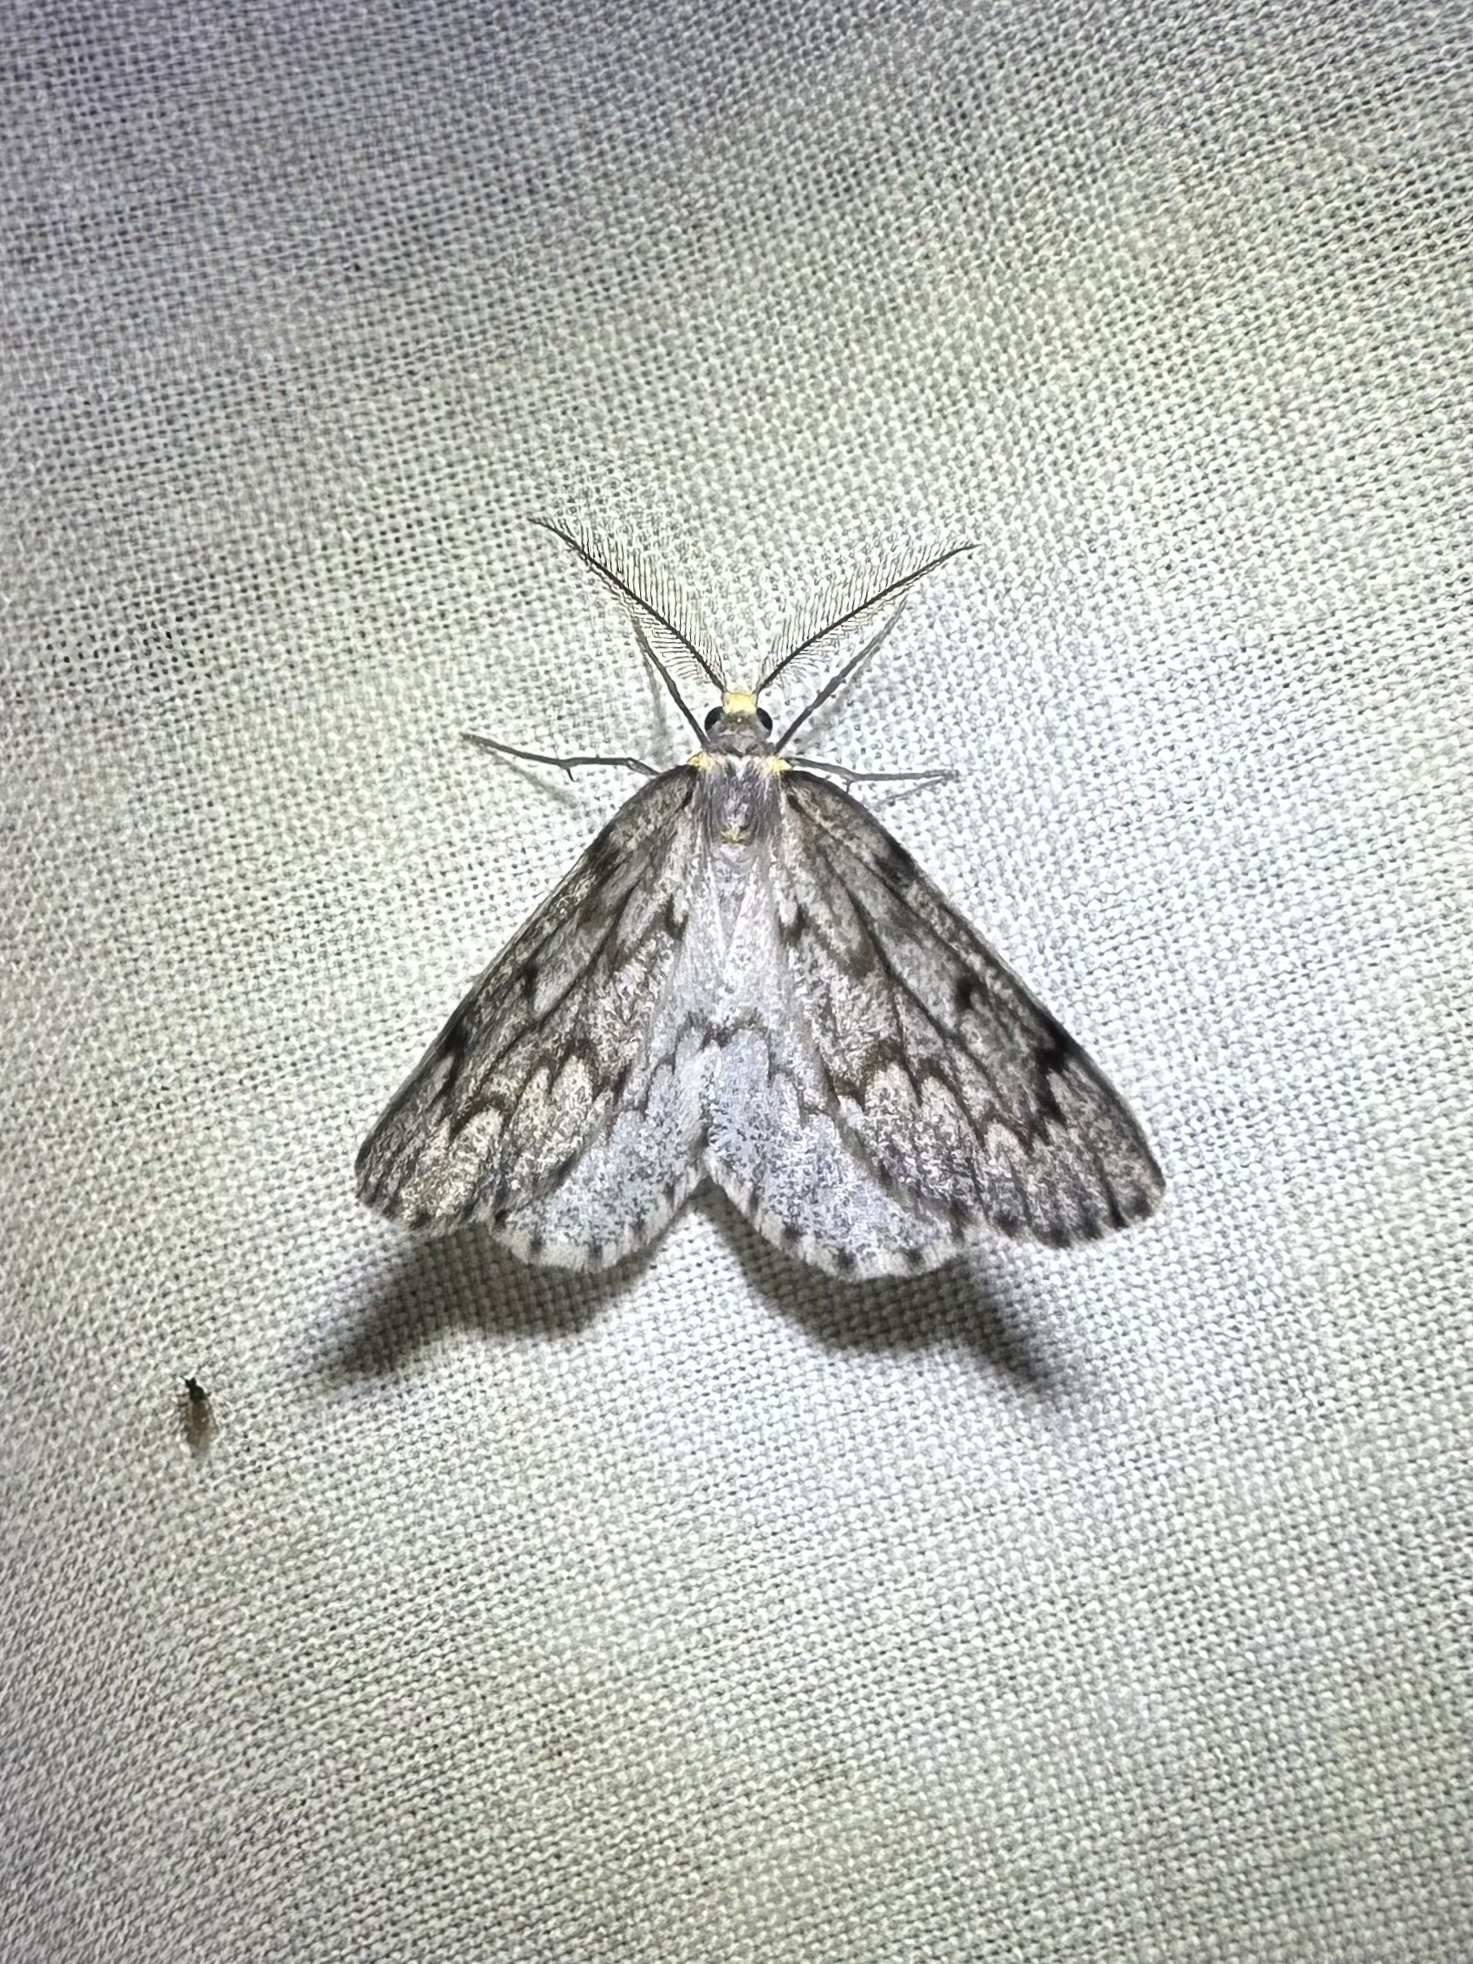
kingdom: Animalia
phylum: Arthropoda
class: Insecta
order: Lepidoptera
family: Geometridae
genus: Nepytia
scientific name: Nepytia canosaria
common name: False hemlock looper
